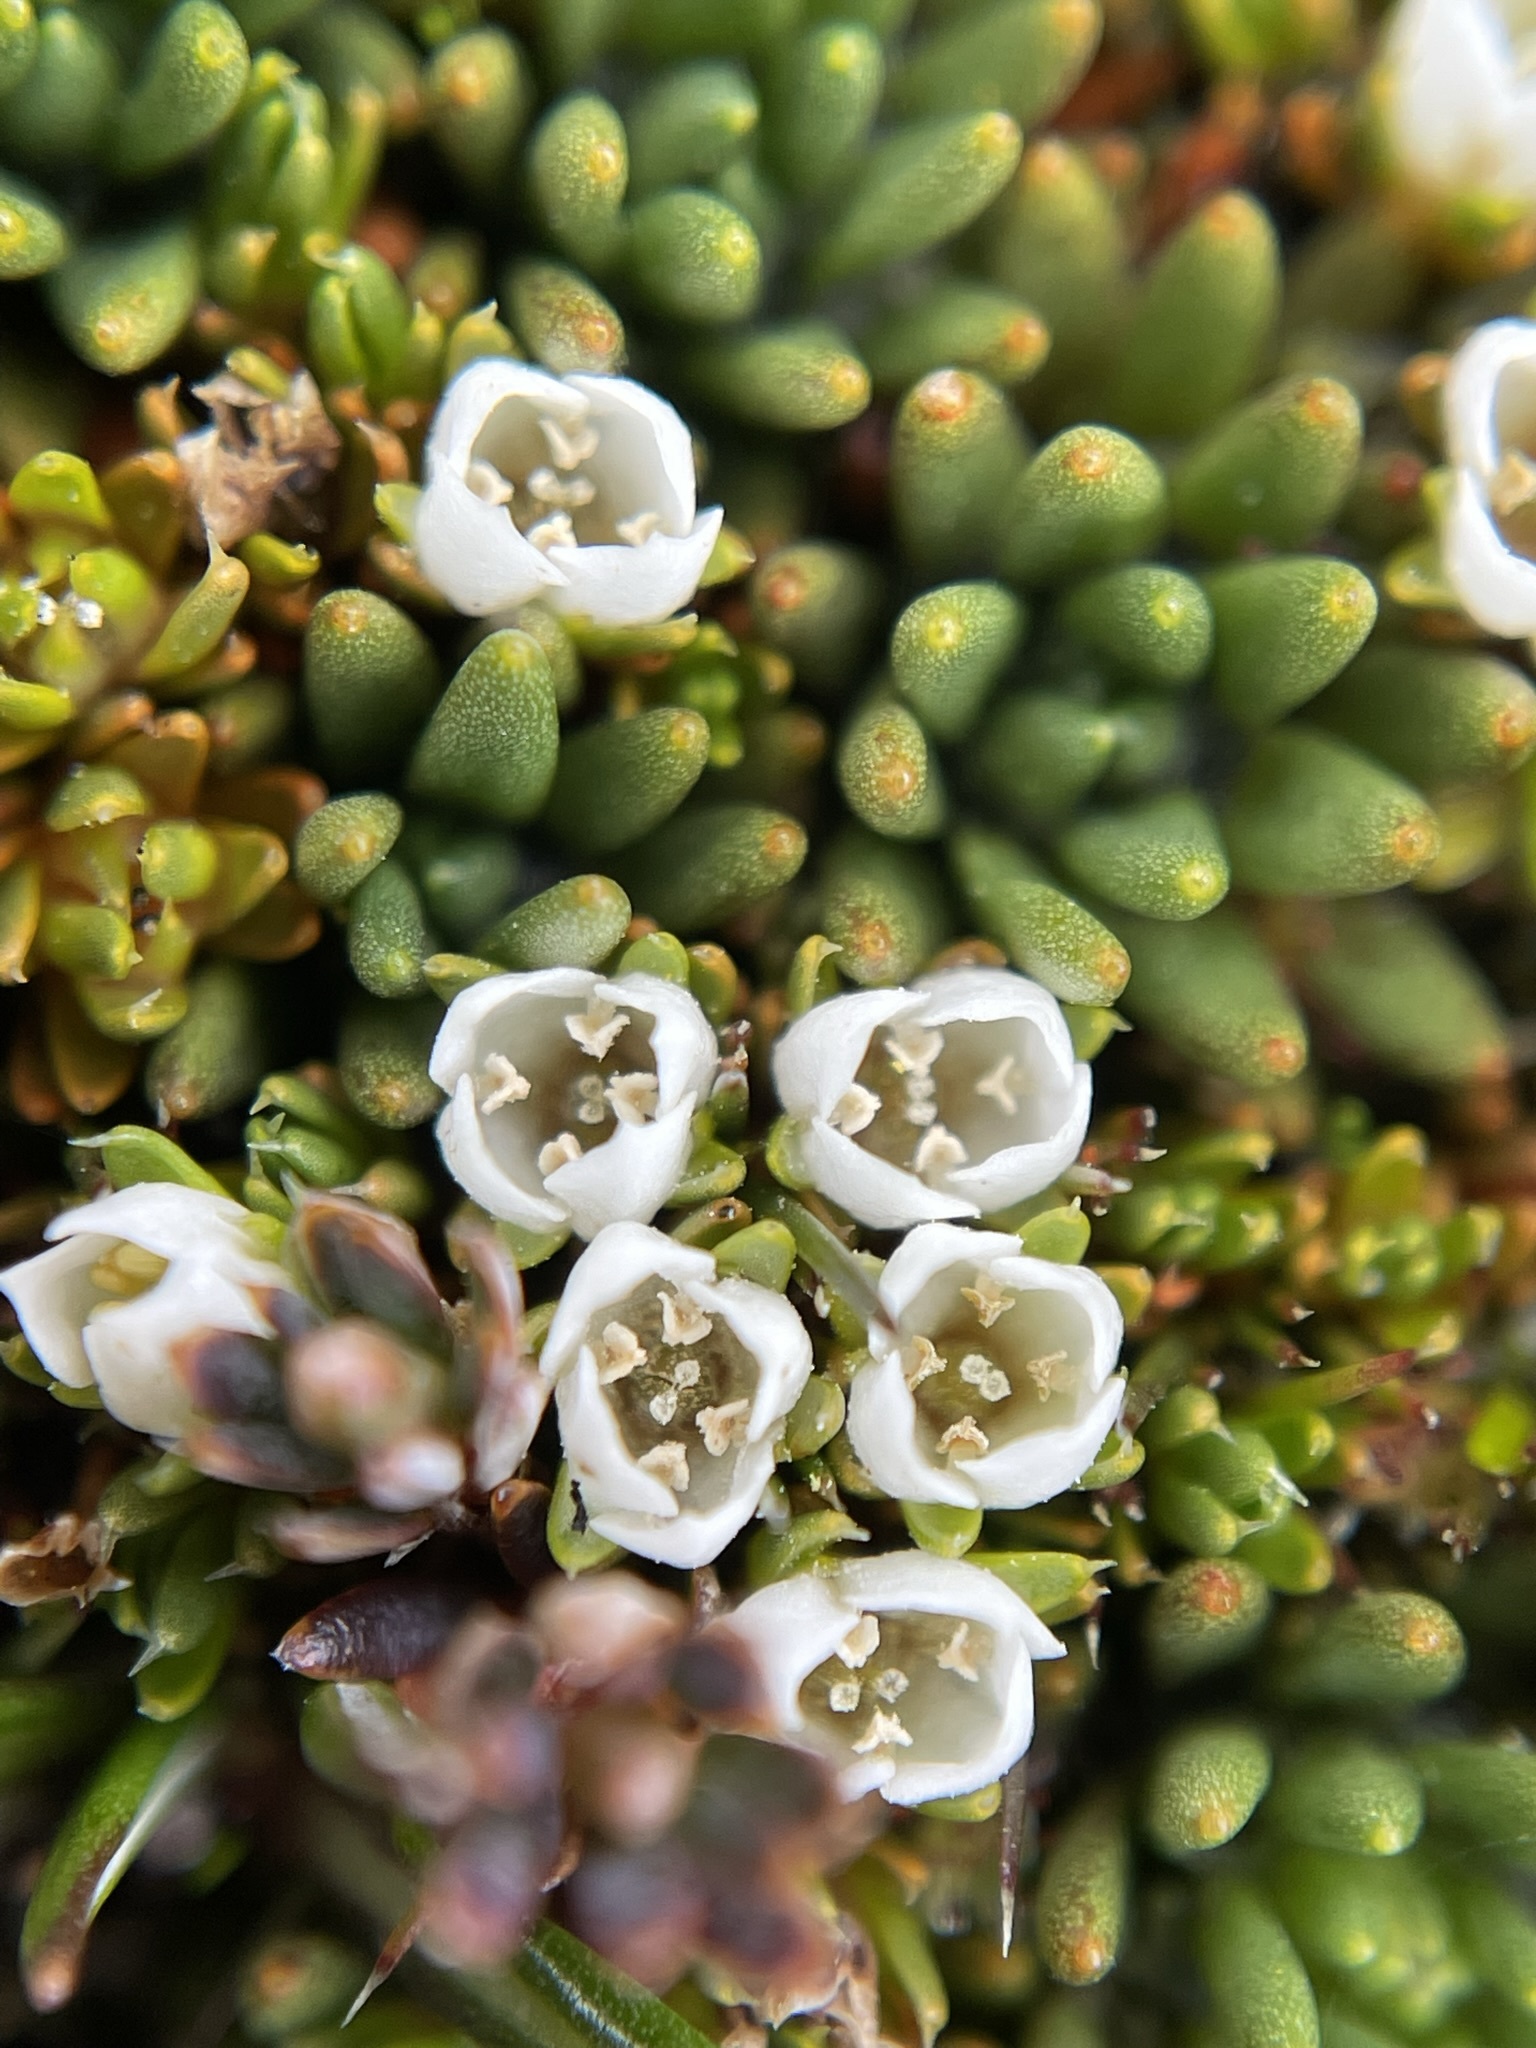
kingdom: Plantae
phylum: Tracheophyta
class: Magnoliopsida
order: Gentianales
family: Loganiaceae
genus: Schizacme
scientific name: Schizacme novae-zelandiae
